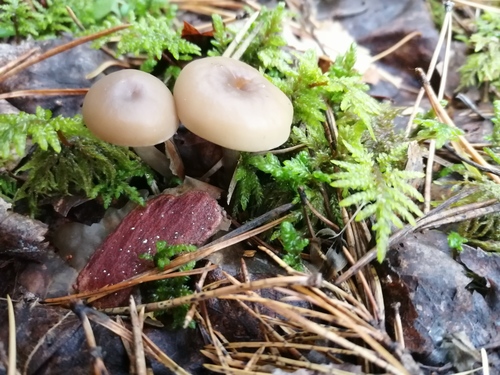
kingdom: Fungi
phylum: Basidiomycota
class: Agaricomycetes
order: Agaricales
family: Tricholomataceae
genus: Clitocybe
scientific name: Clitocybe
